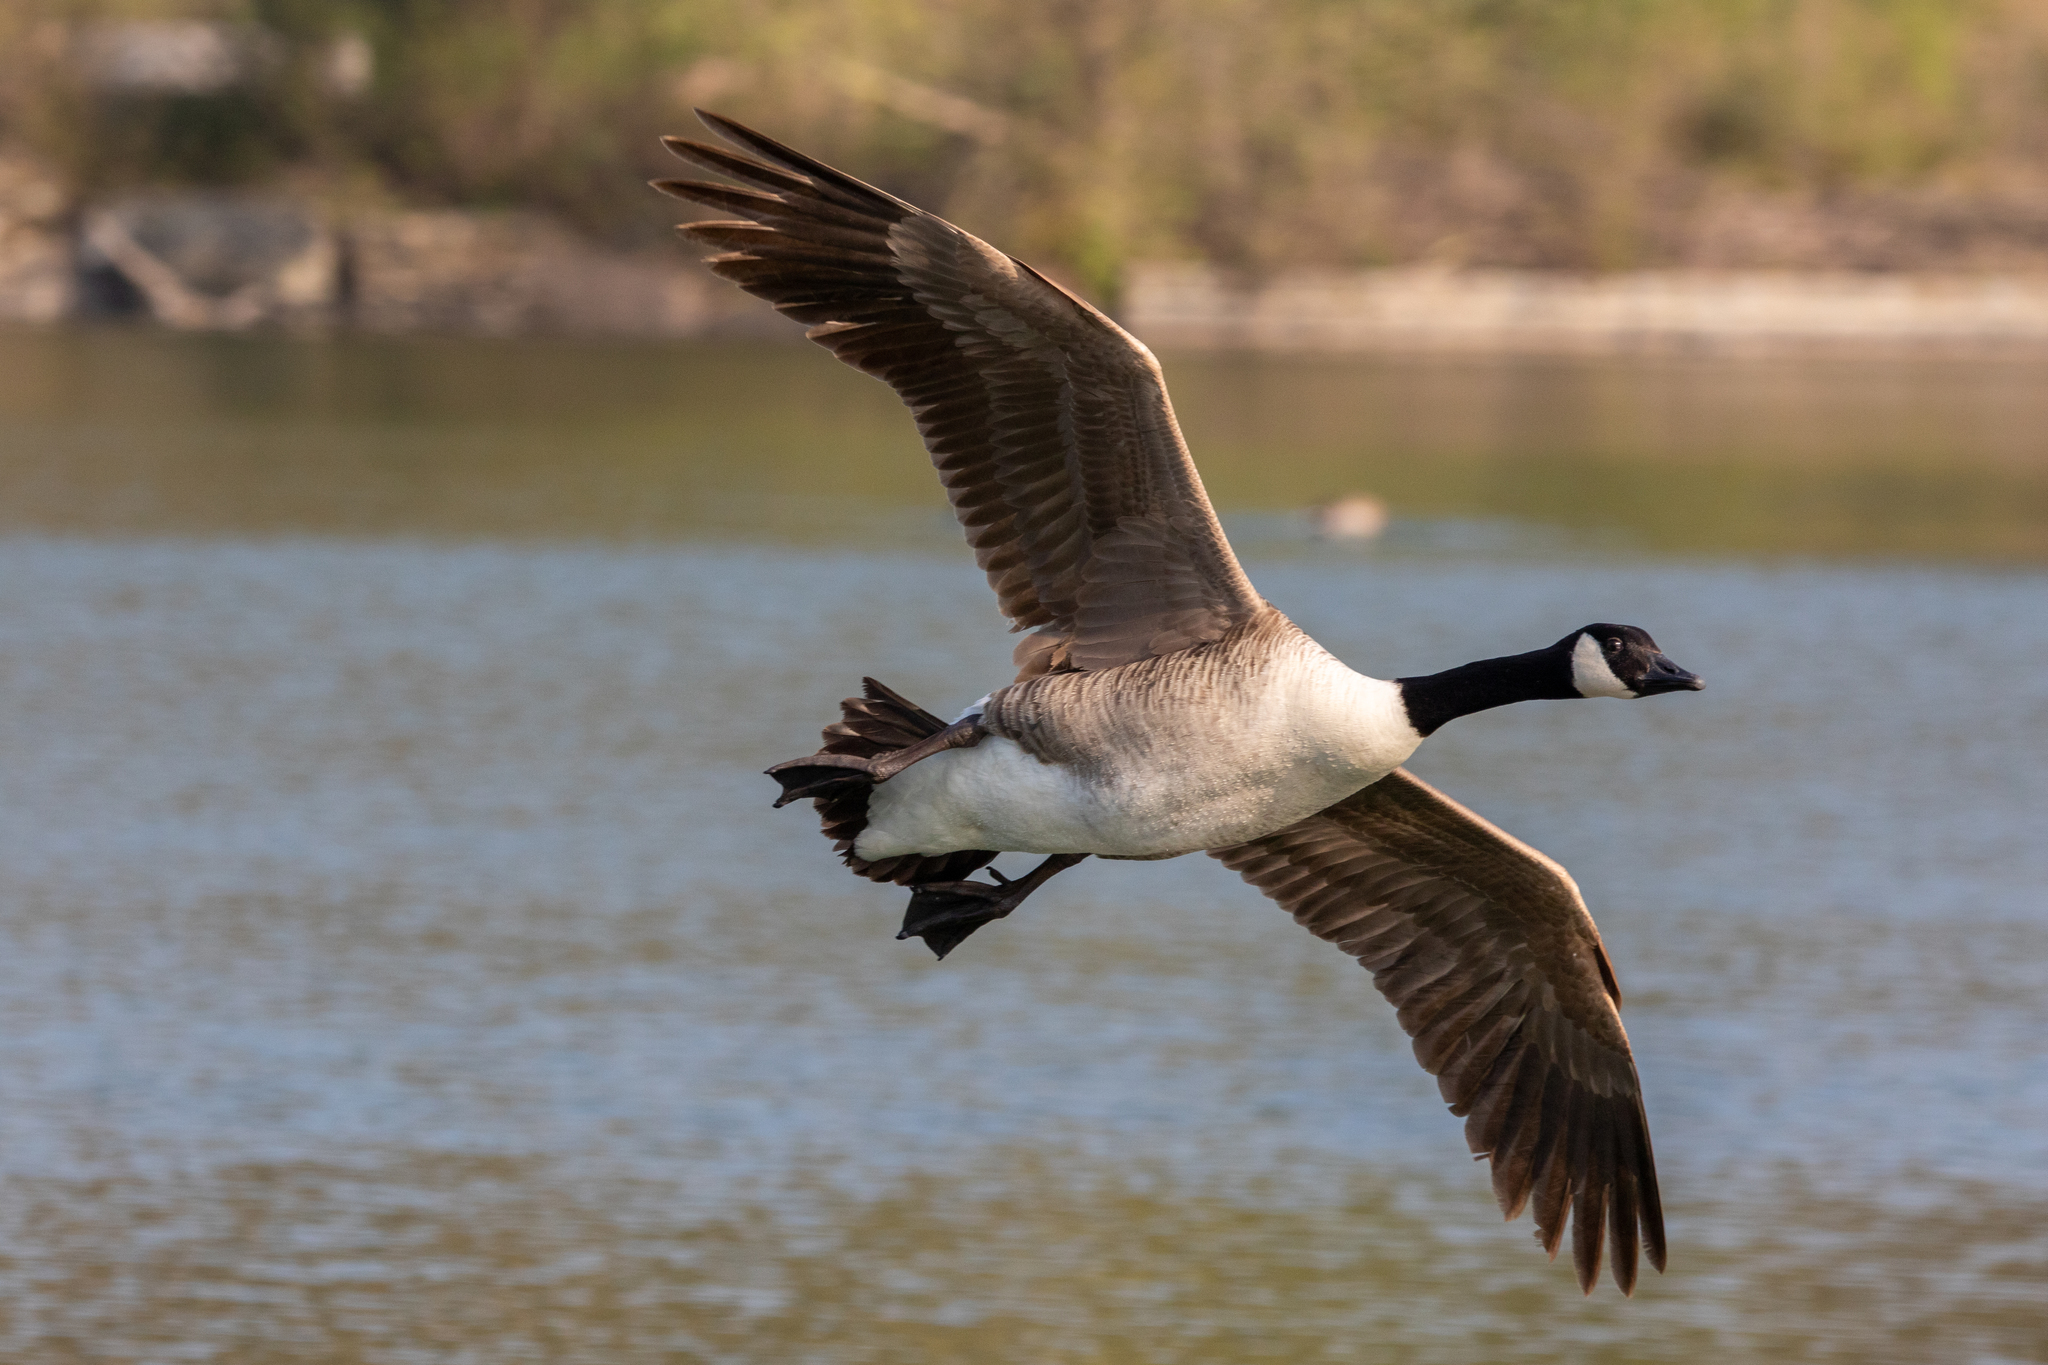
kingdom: Animalia
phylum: Chordata
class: Aves
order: Anseriformes
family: Anatidae
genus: Branta
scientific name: Branta canadensis
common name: Canada goose
